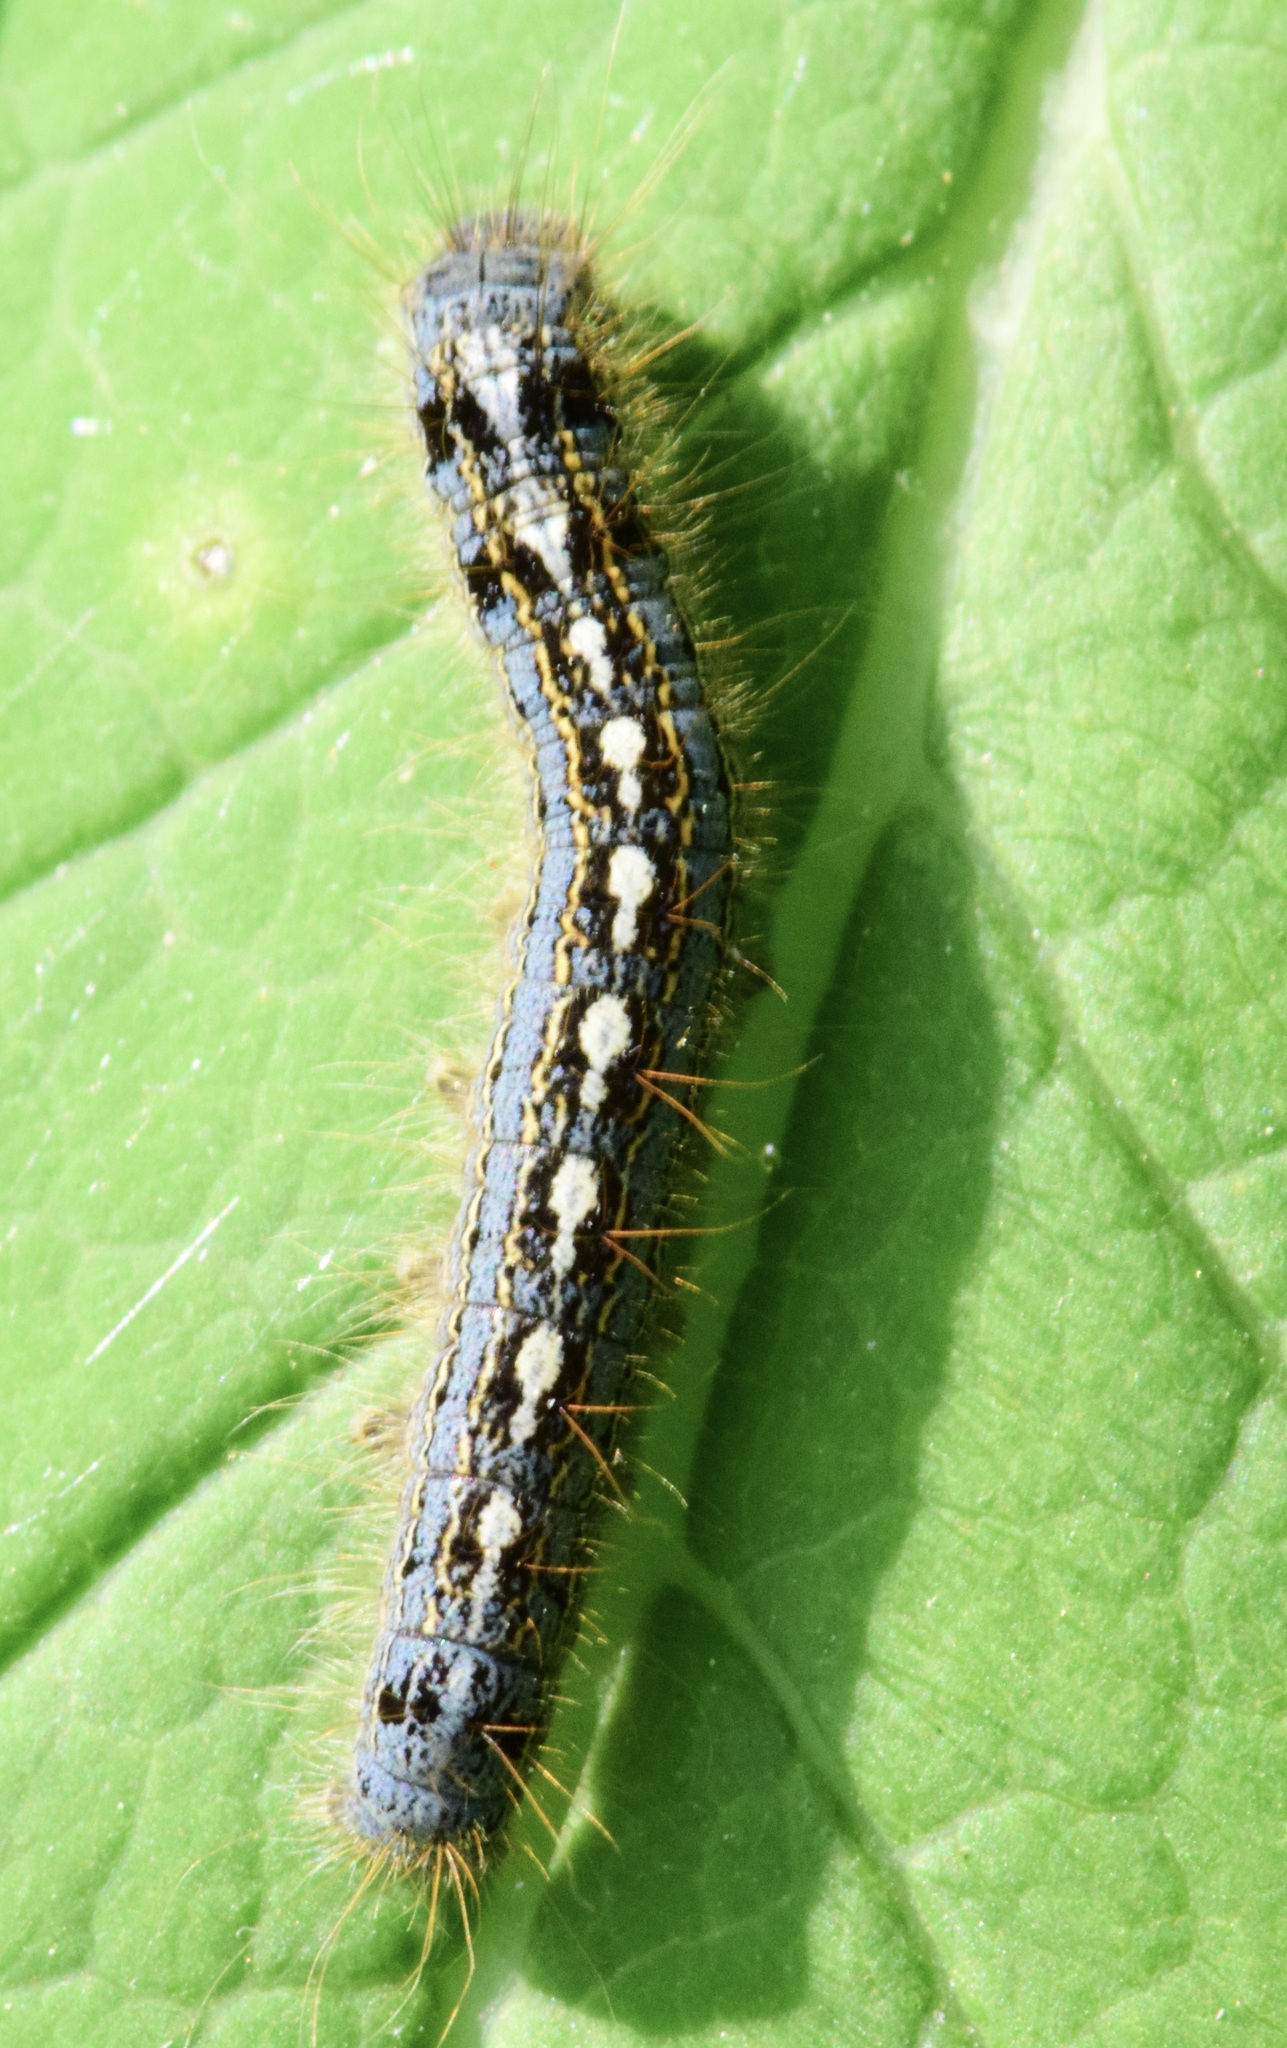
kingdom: Animalia
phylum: Arthropoda
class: Insecta
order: Lepidoptera
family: Lasiocampidae
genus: Malacosoma
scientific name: Malacosoma disstria
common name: Forest tent caterpillar
